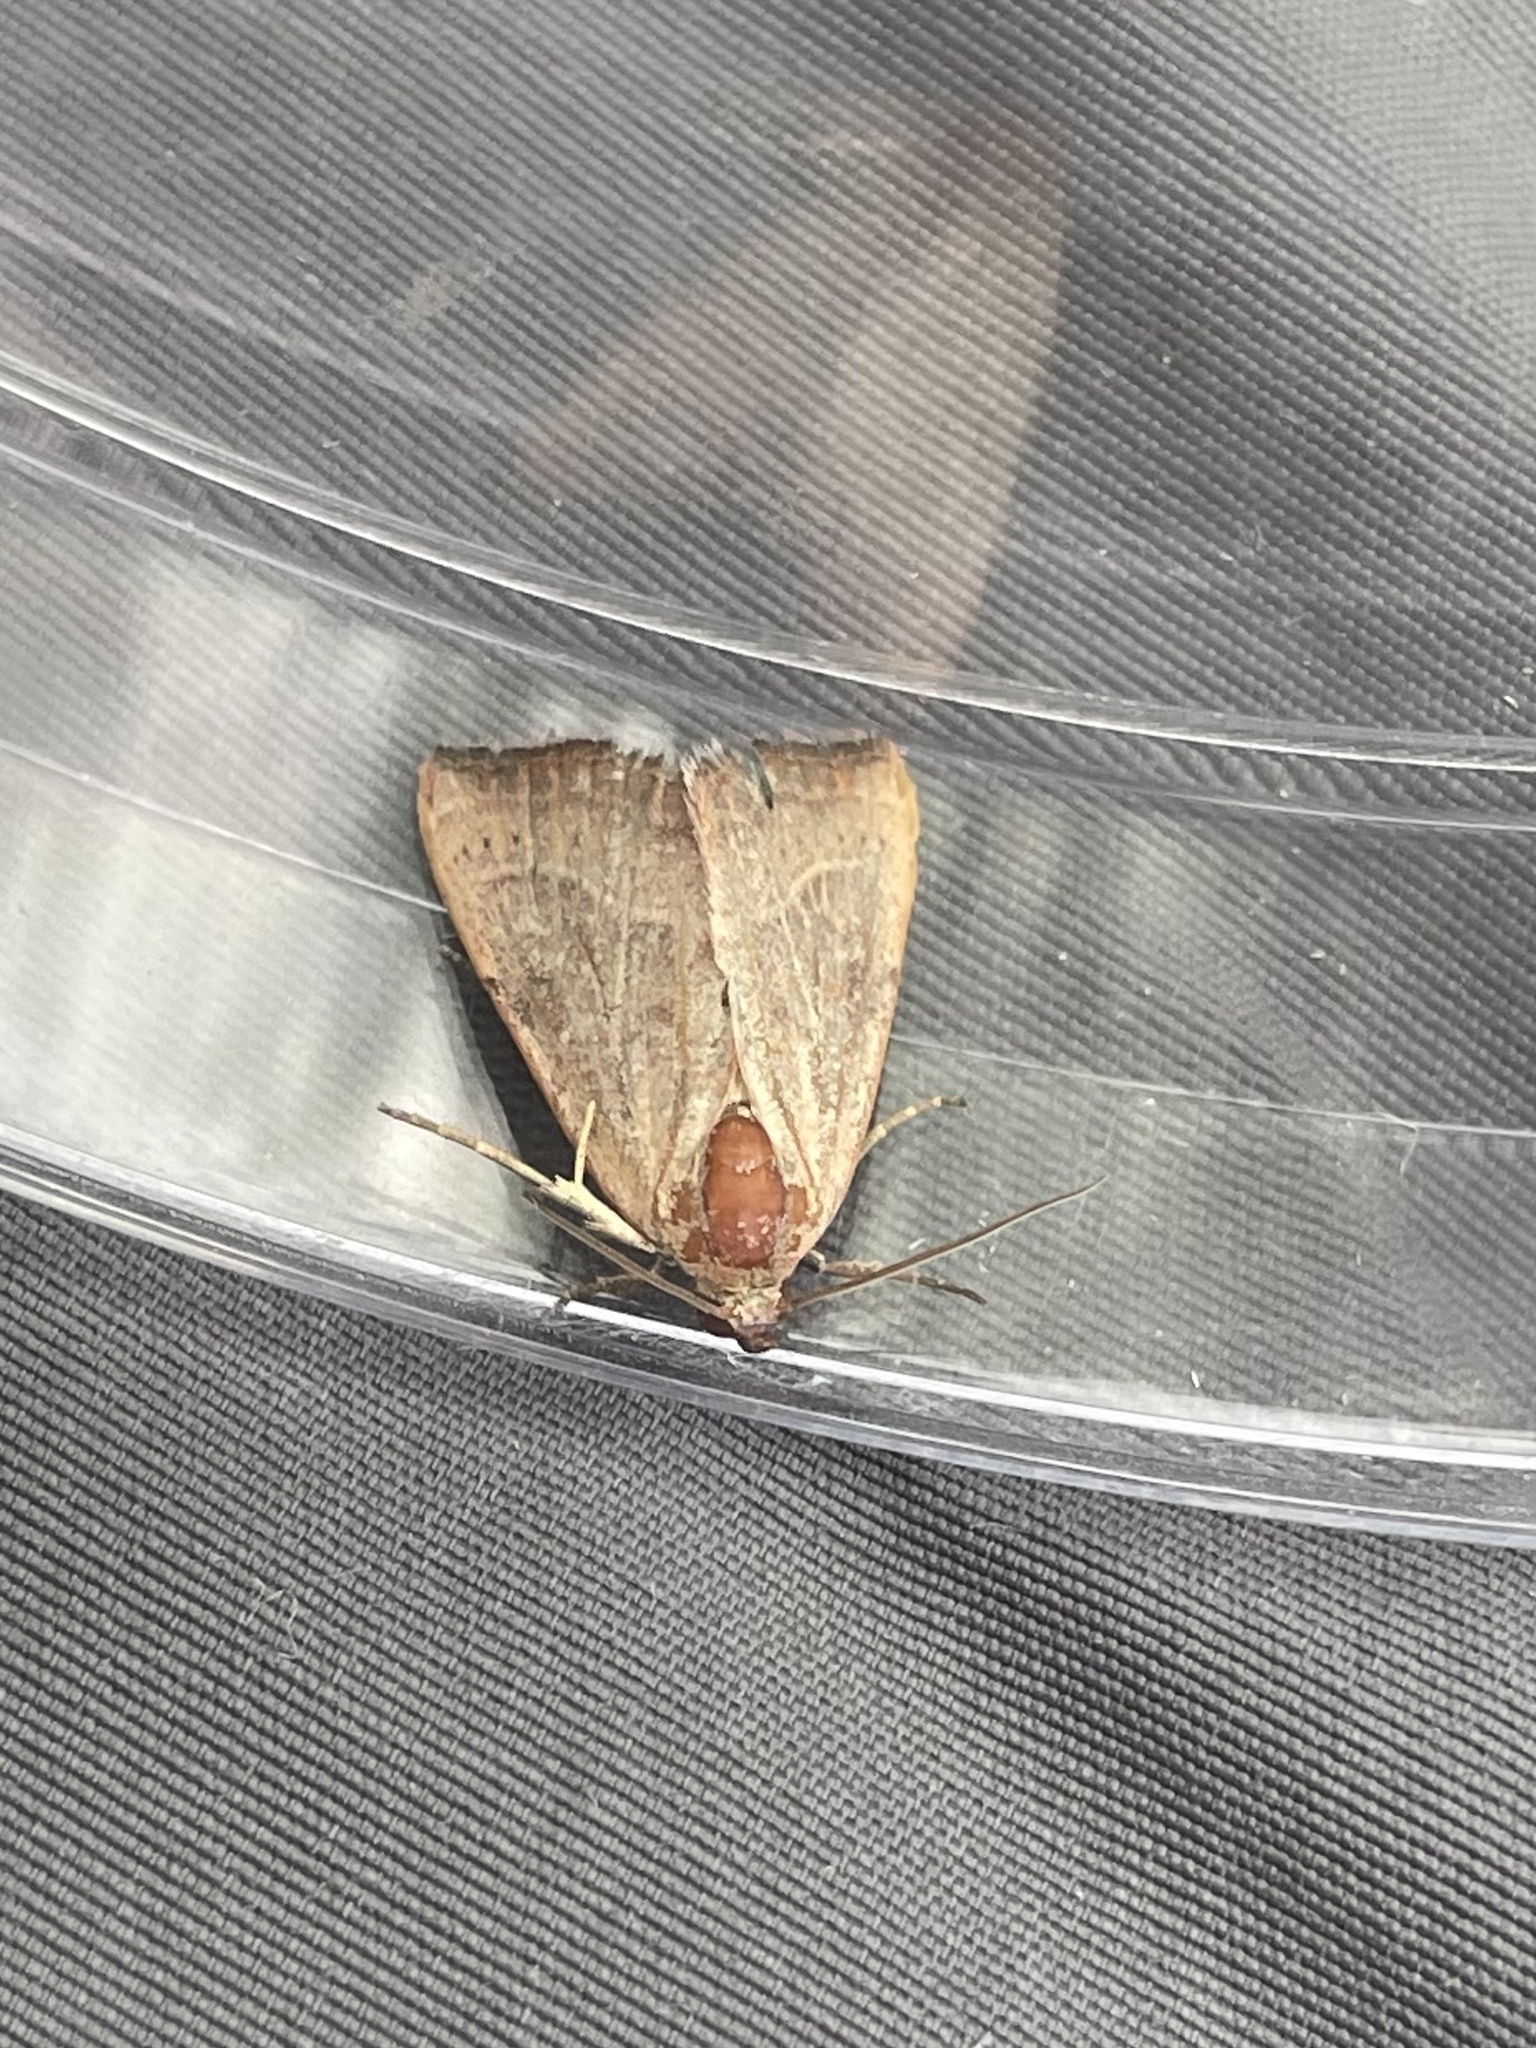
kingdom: Animalia
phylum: Arthropoda
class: Insecta
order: Lepidoptera
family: Noctuidae
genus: Galgula
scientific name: Galgula partita
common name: Wedgeling
